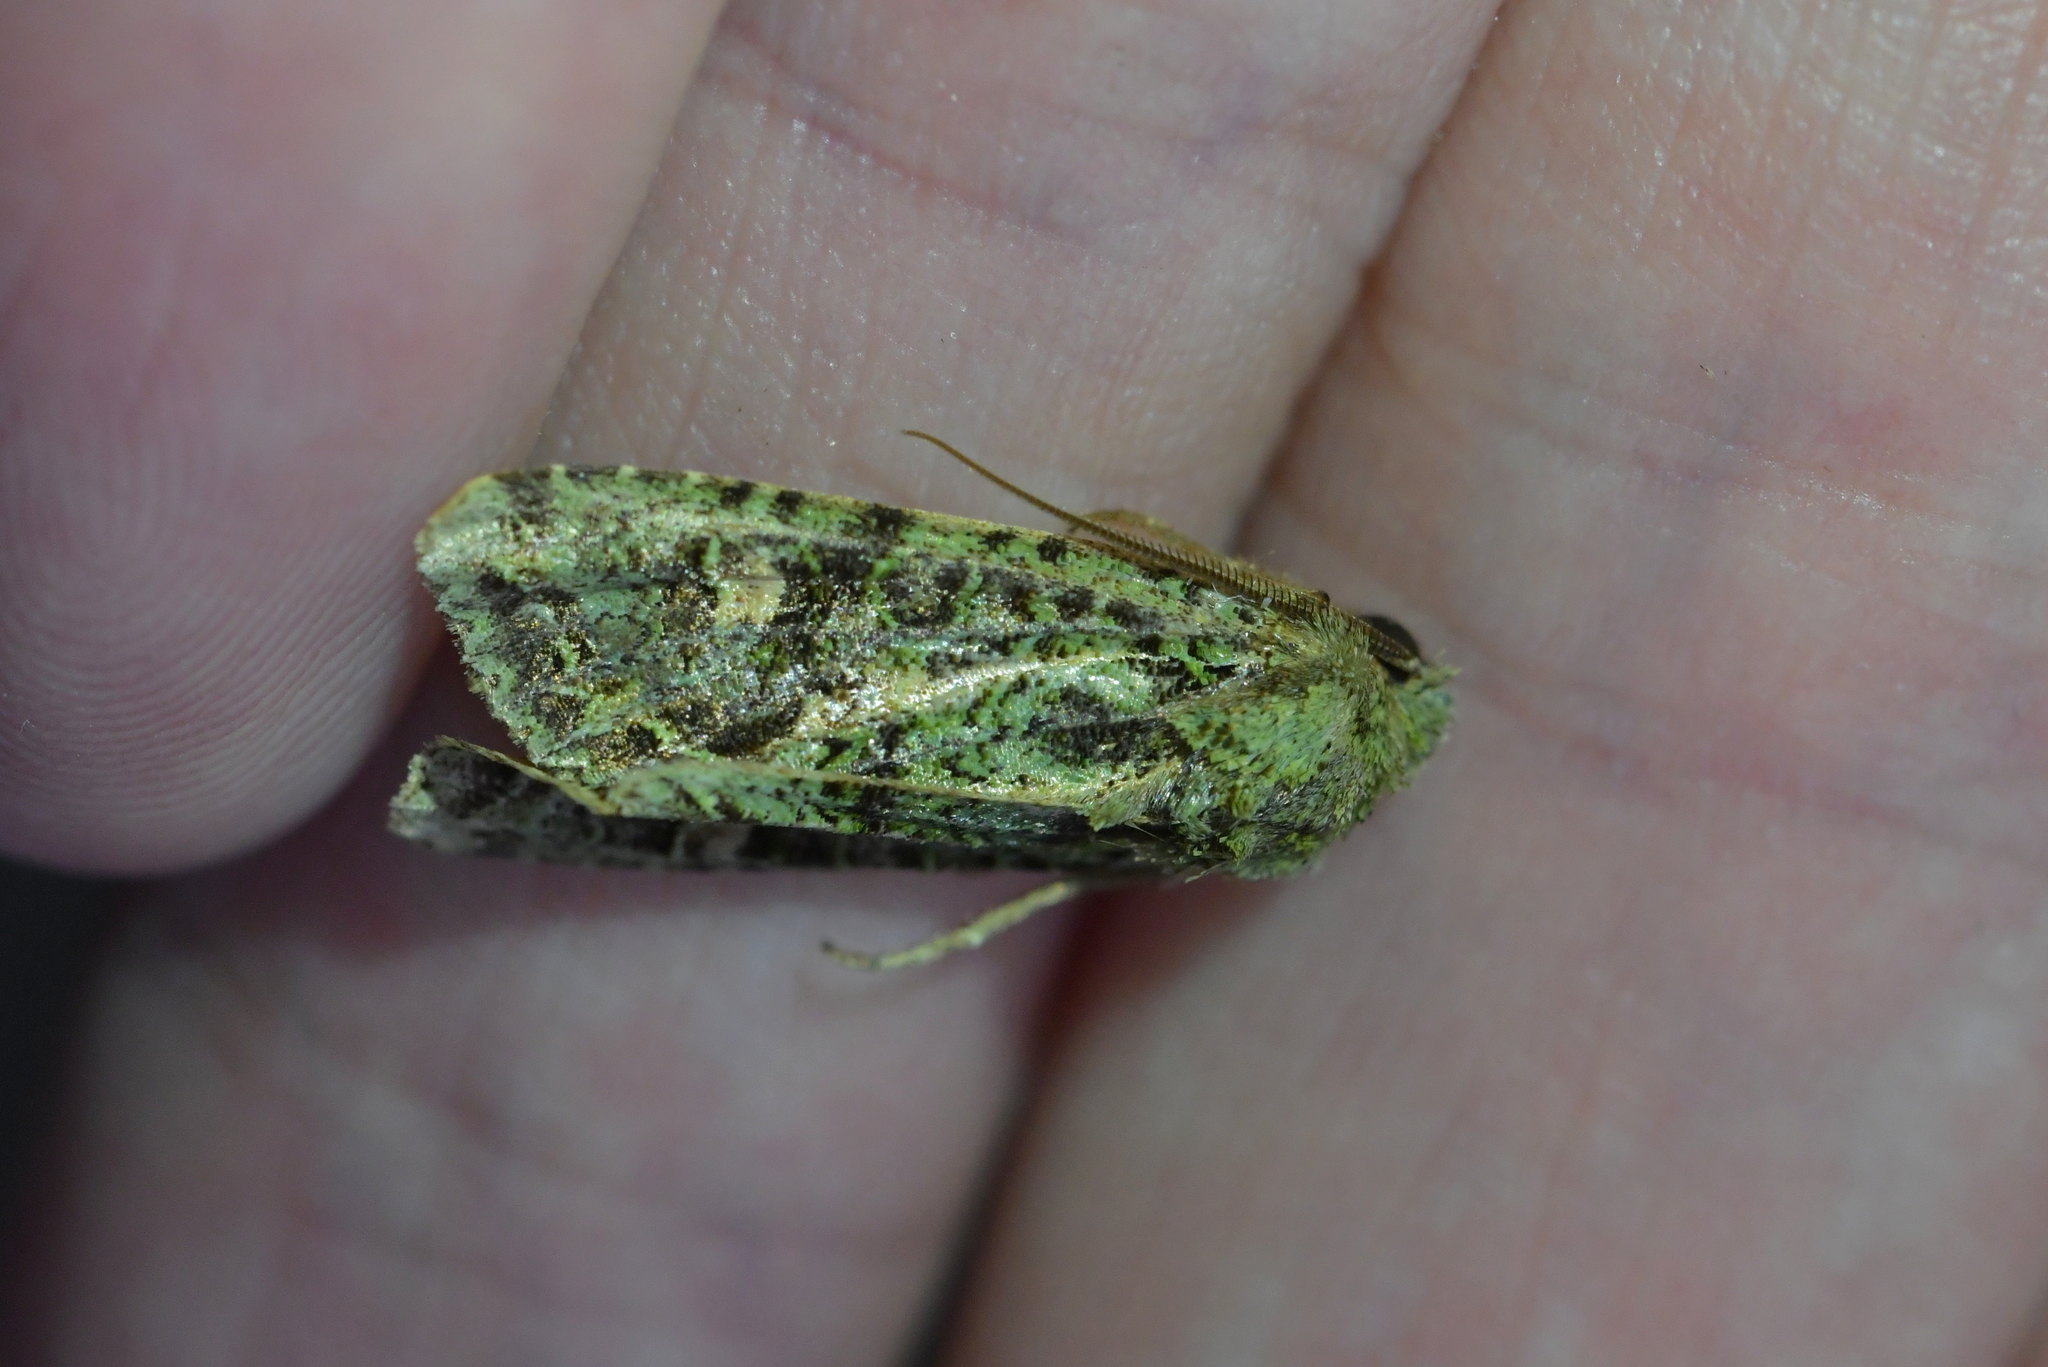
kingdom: Animalia
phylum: Arthropoda
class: Insecta
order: Lepidoptera
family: Noctuidae
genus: Ichneutica
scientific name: Ichneutica
